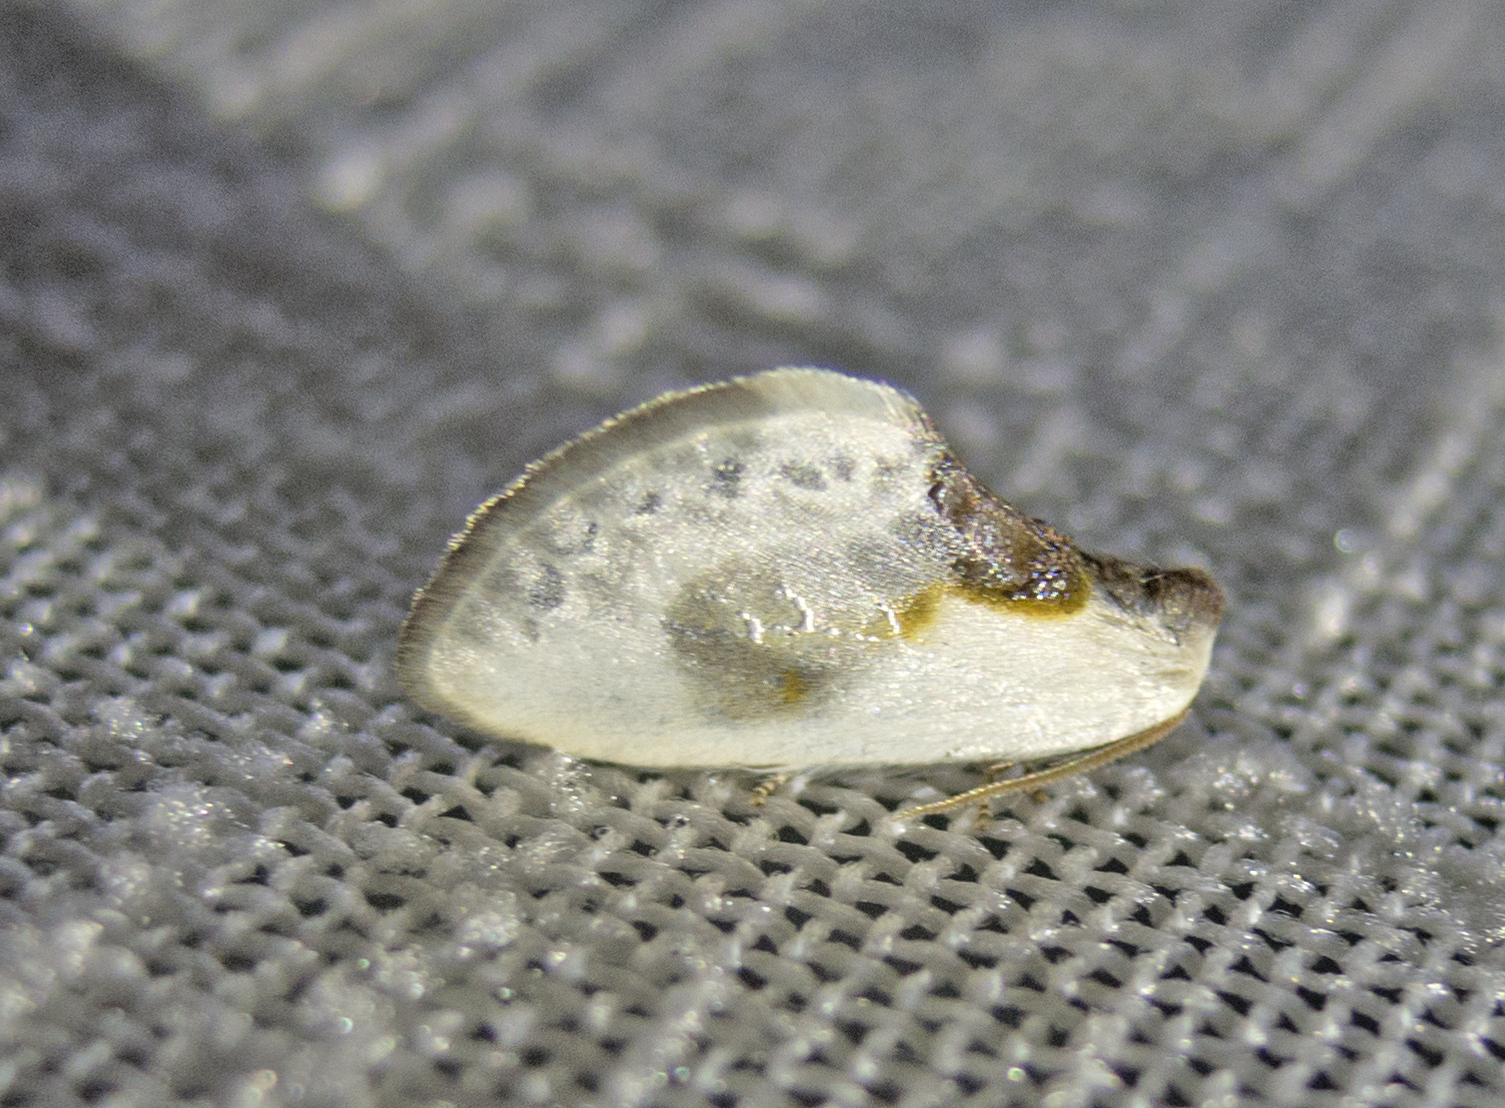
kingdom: Animalia
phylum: Arthropoda
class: Insecta
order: Lepidoptera
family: Drepanidae
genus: Cilix
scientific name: Cilix glaucata
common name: Chinese character
